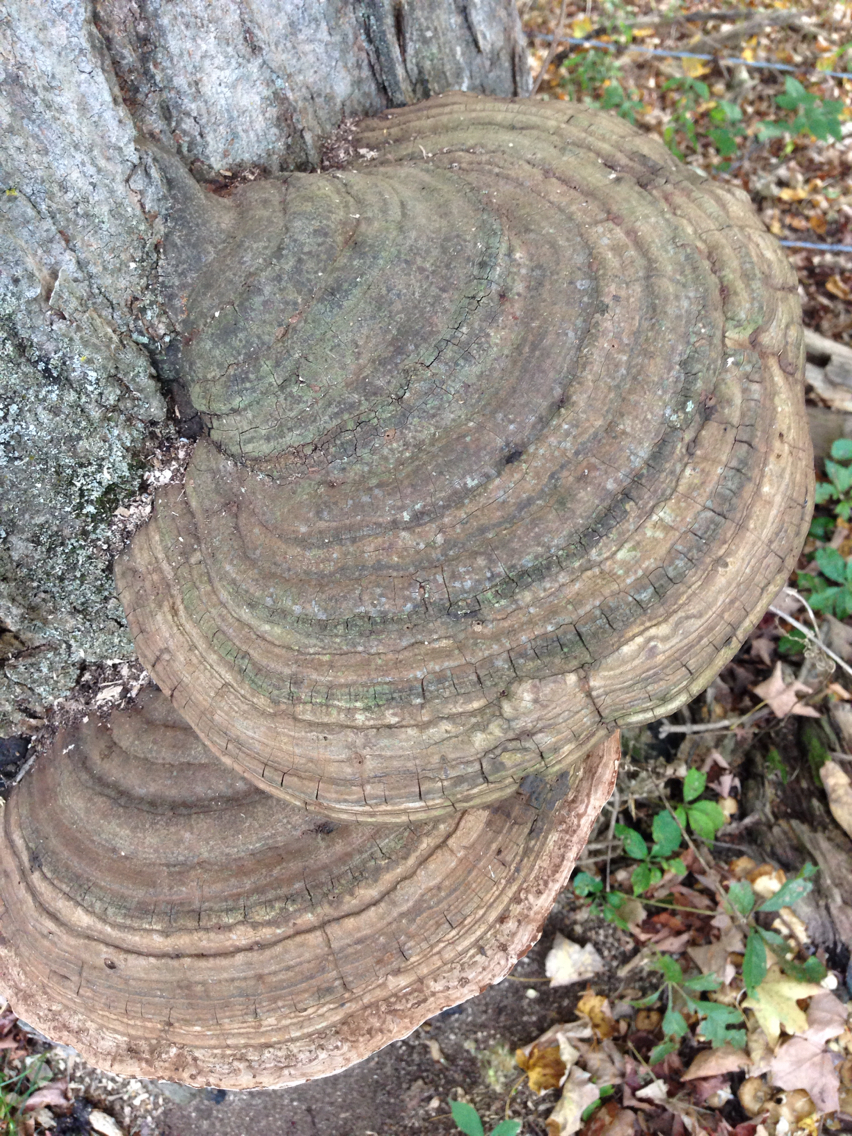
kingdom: Fungi
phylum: Basidiomycota
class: Agaricomycetes
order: Polyporales
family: Polyporaceae
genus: Ganoderma
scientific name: Ganoderma applanatum
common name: Artist's bracket
